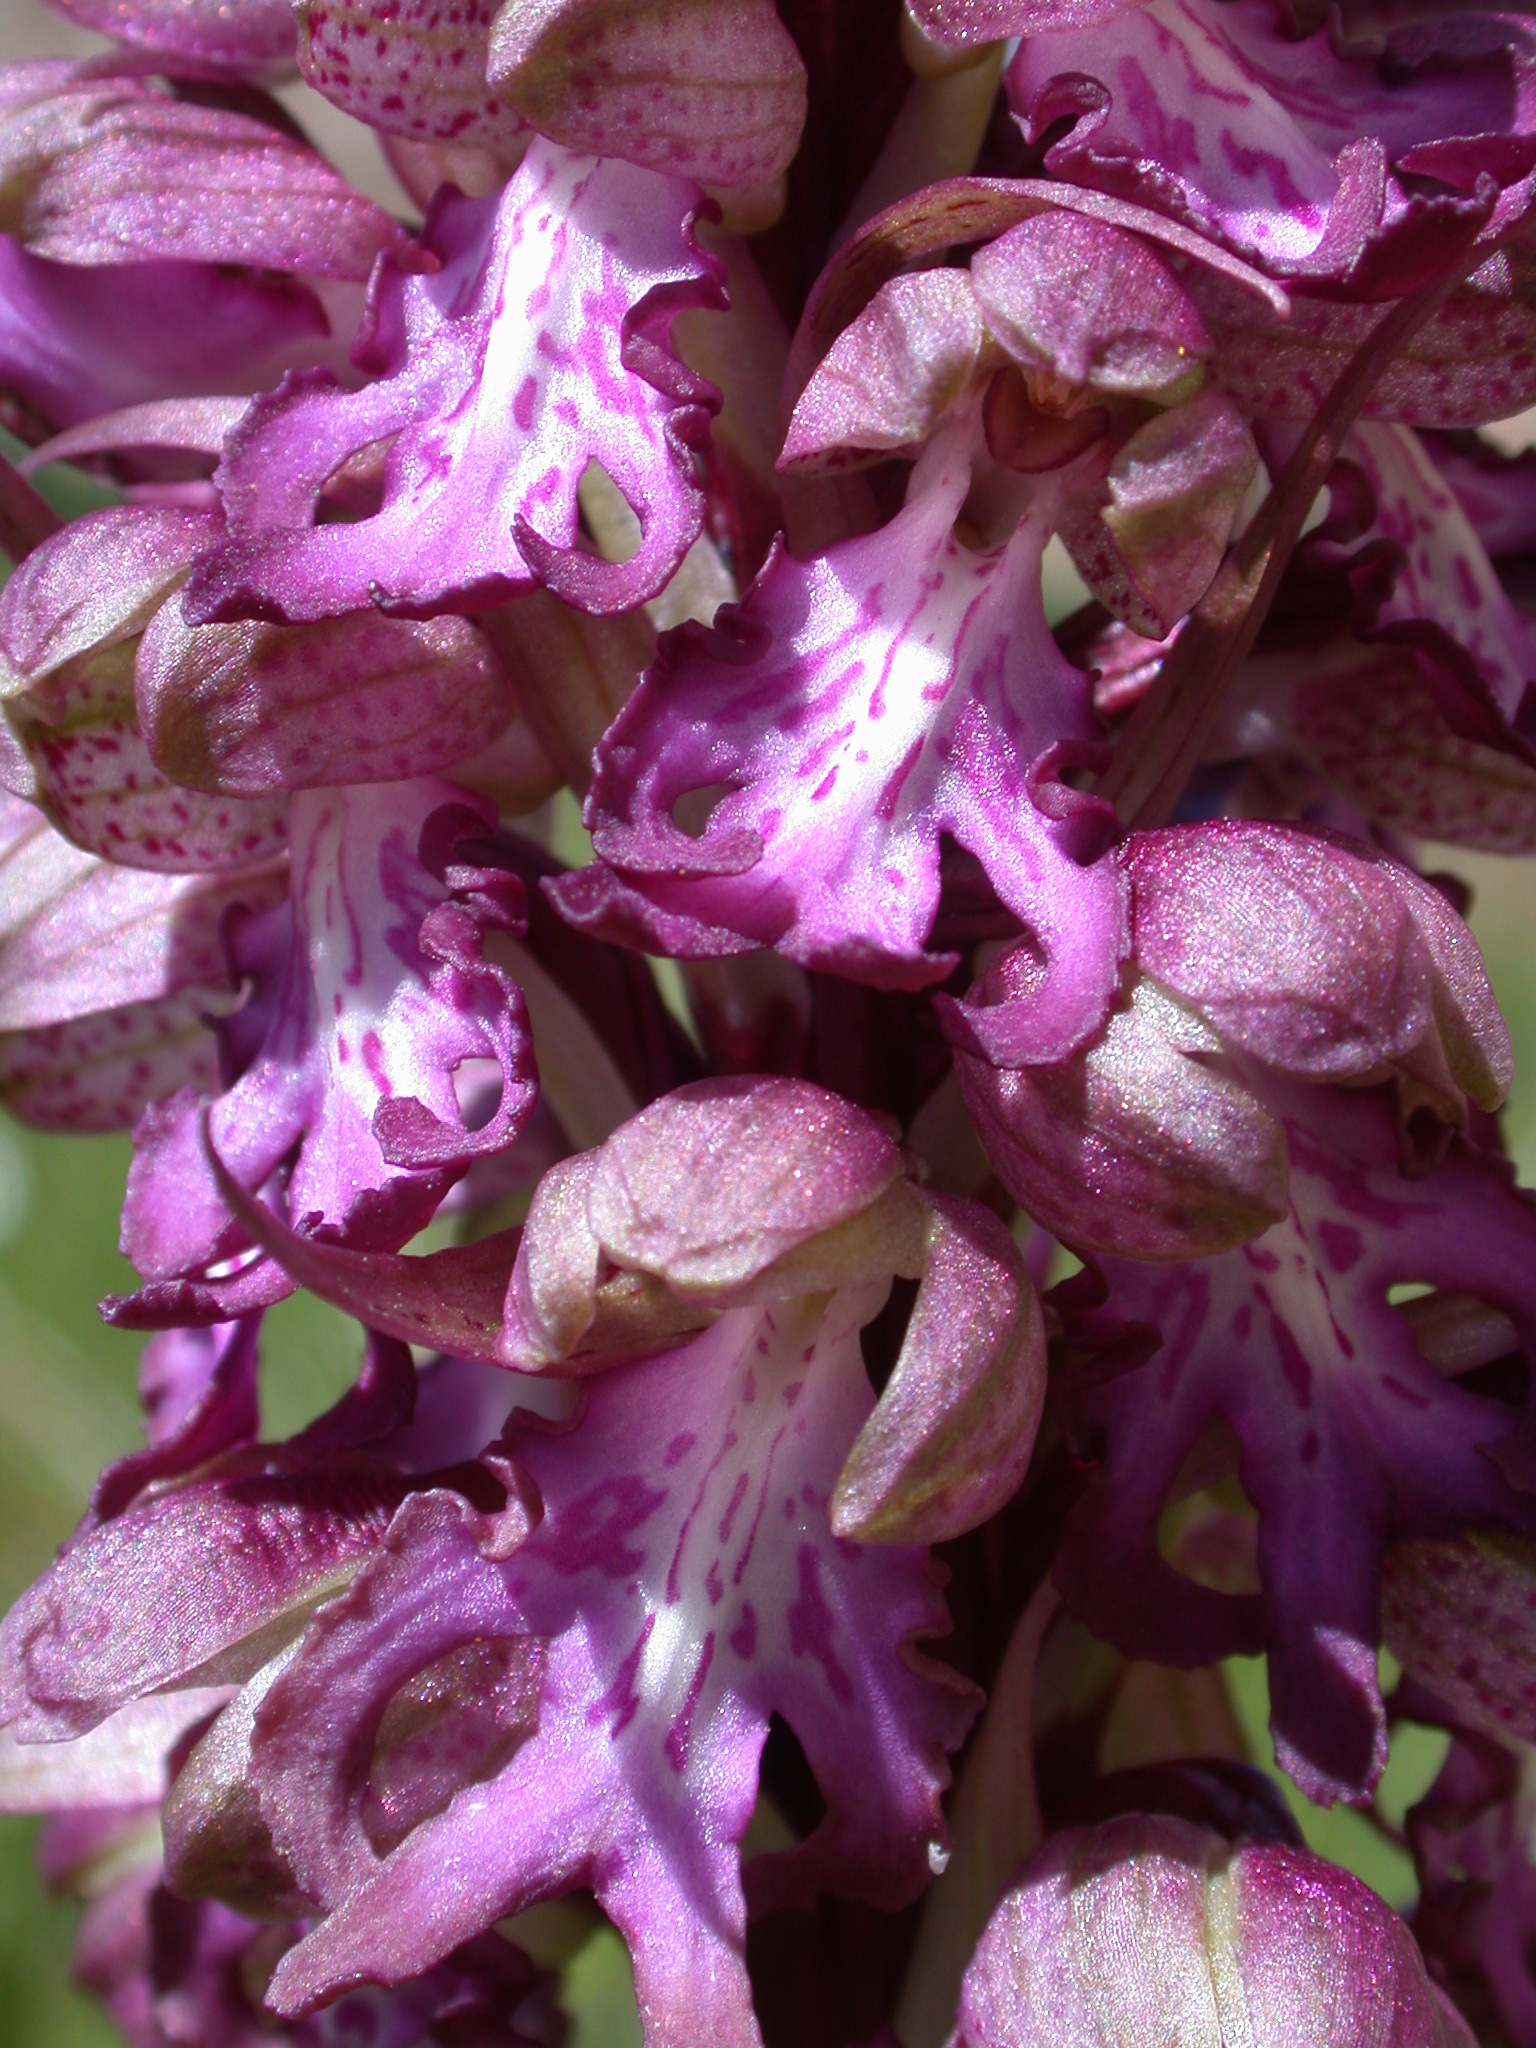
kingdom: Plantae
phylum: Tracheophyta
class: Liliopsida
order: Asparagales
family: Orchidaceae
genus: Himantoglossum
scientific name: Himantoglossum robertianum
